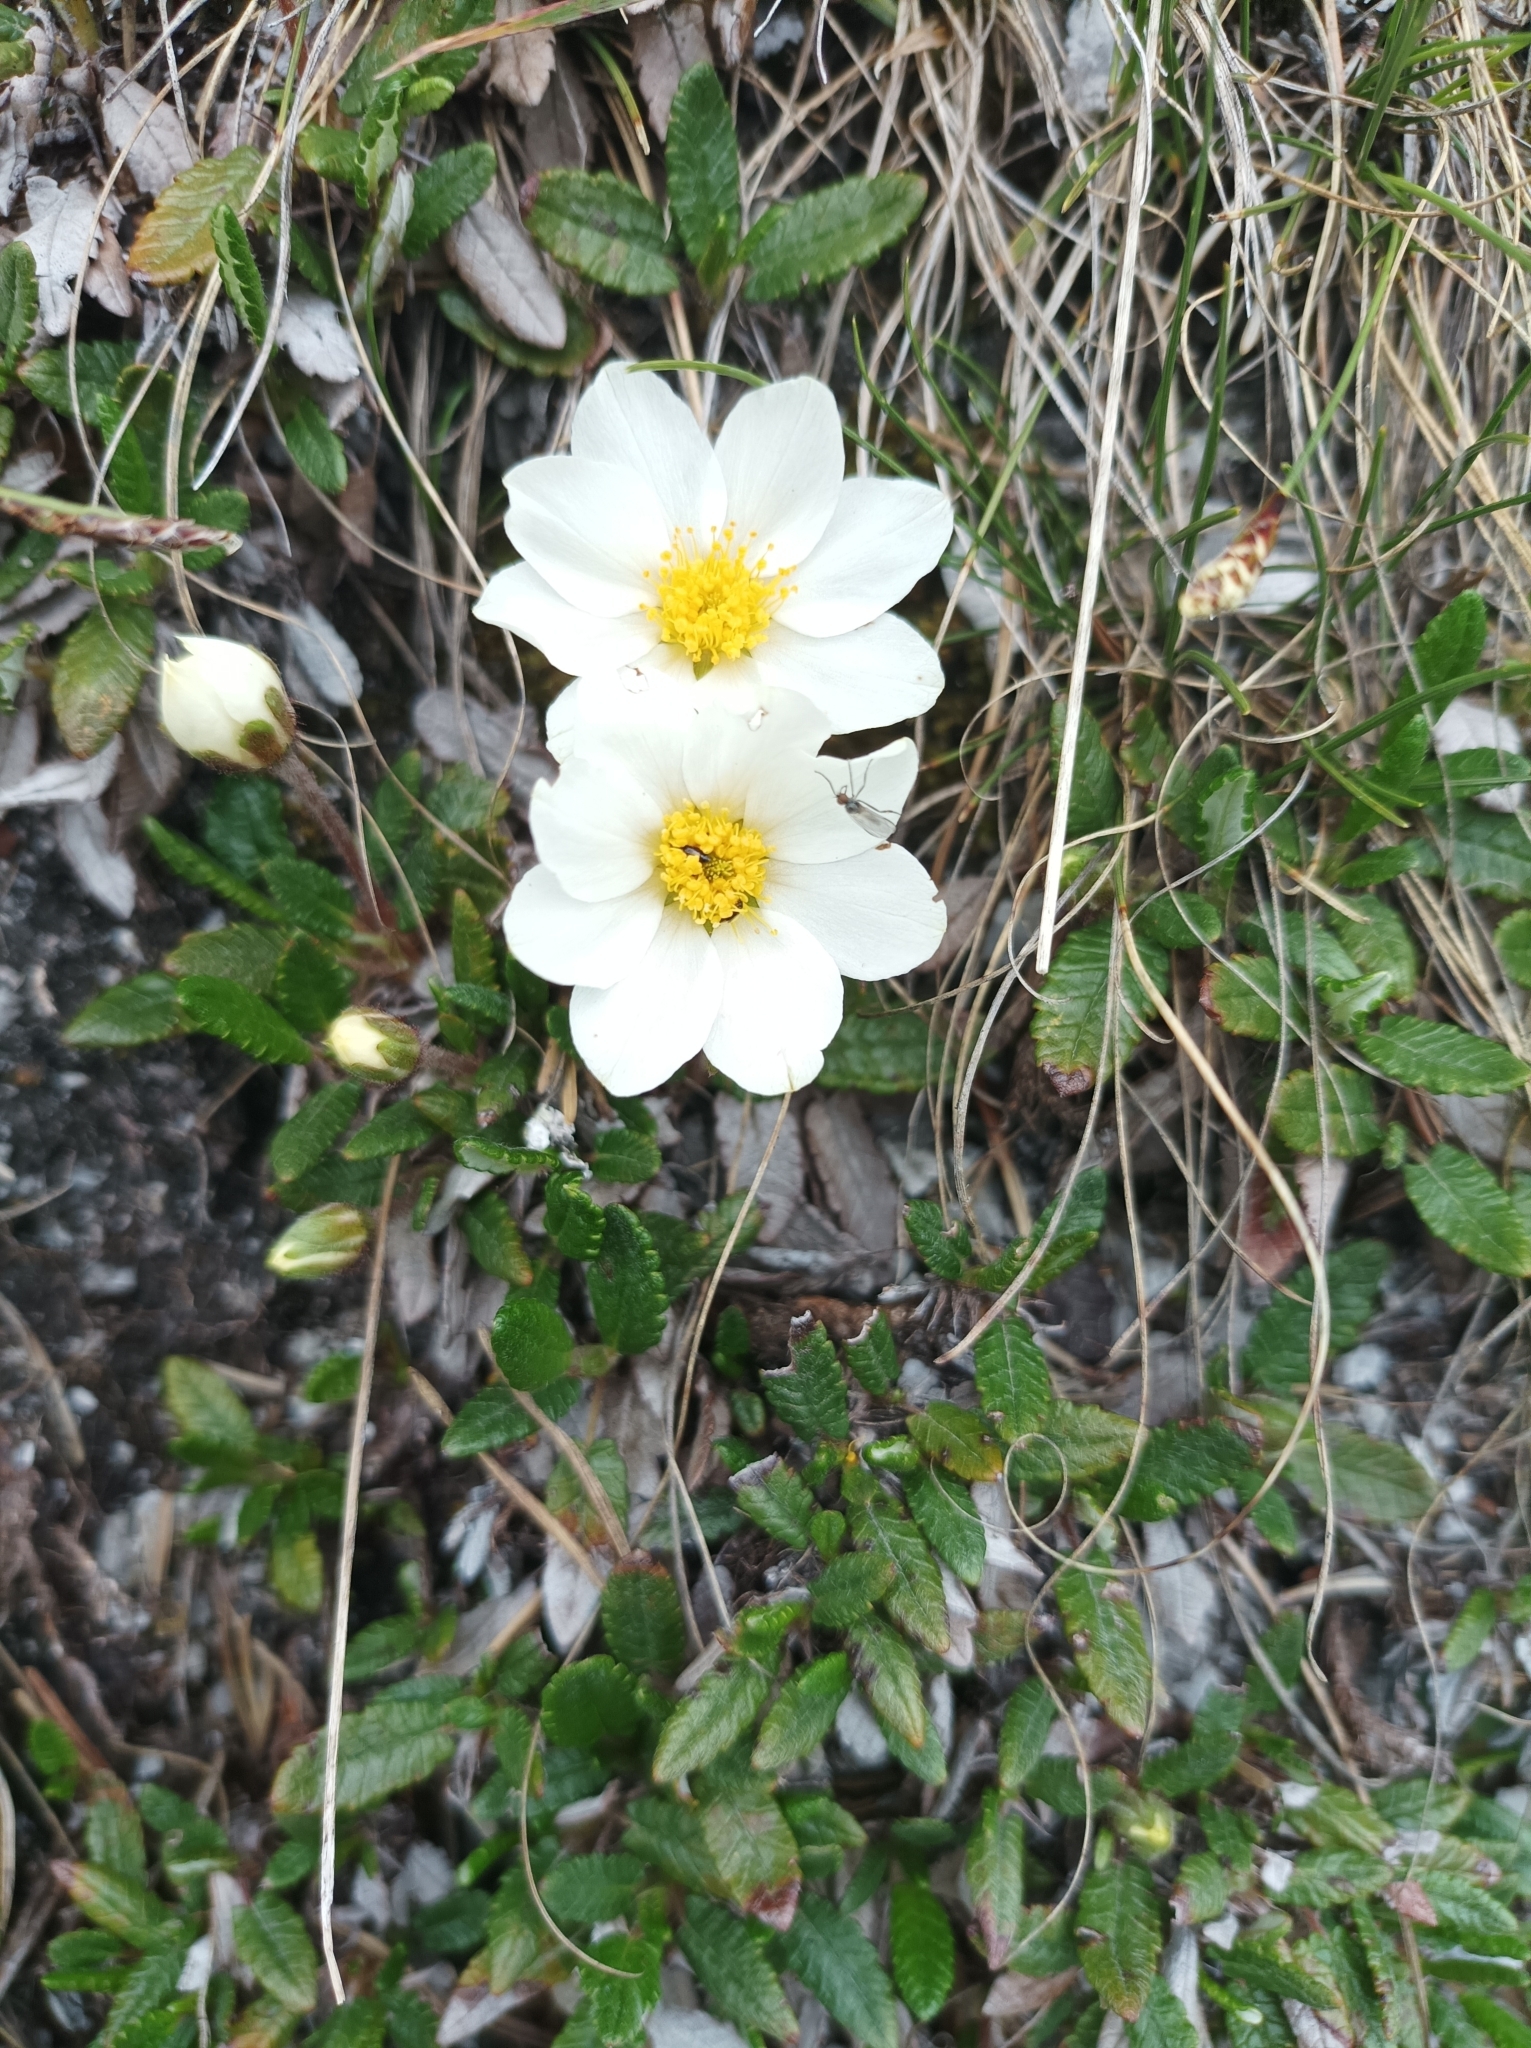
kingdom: Plantae
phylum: Tracheophyta
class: Magnoliopsida
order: Rosales
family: Rosaceae
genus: Dryas
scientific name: Dryas octopetala
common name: Eight-petal mountain-avens
